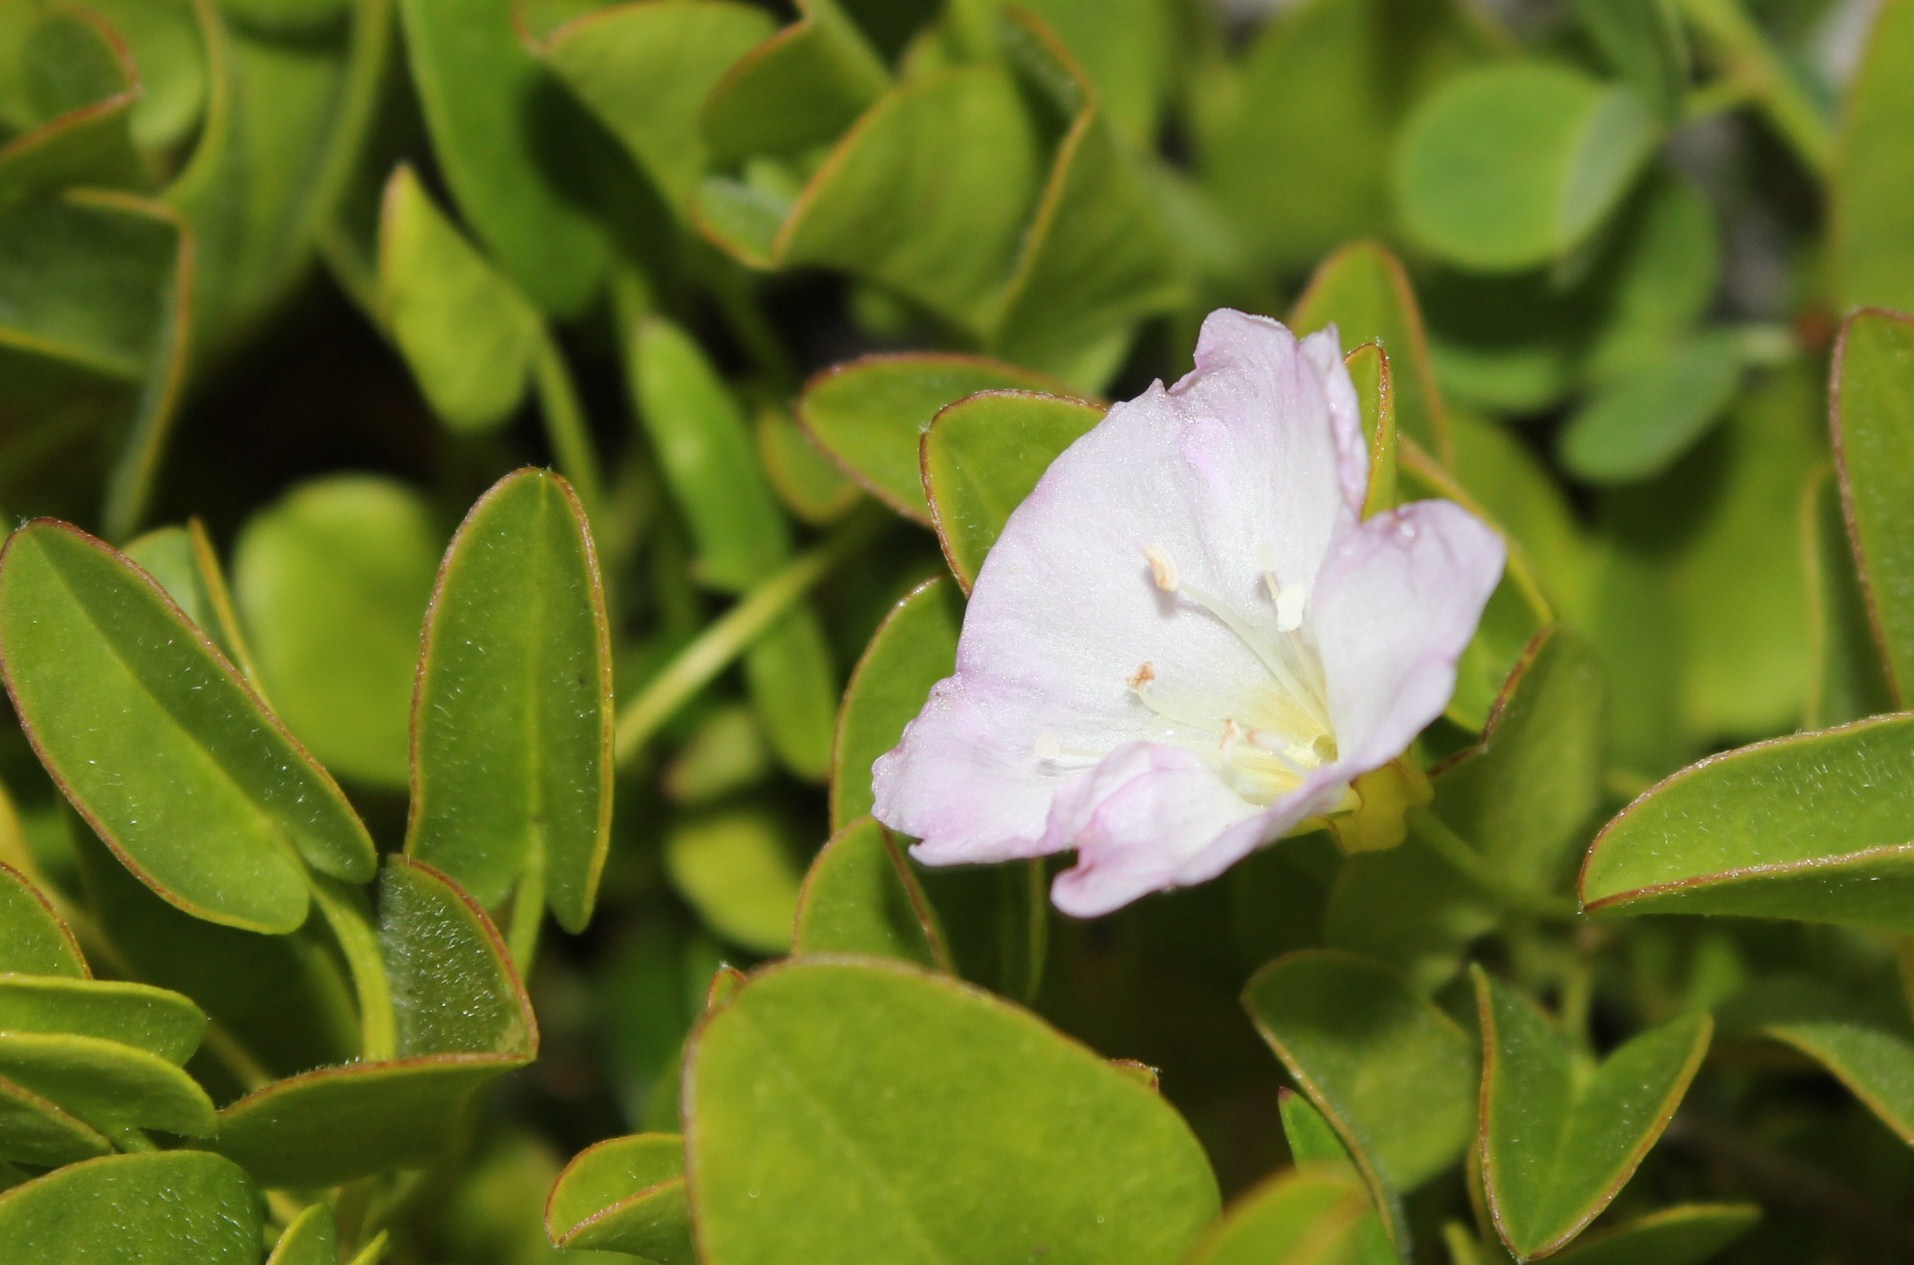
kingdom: Plantae
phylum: Tracheophyta
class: Magnoliopsida
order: Solanales
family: Convolvulaceae
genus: Falkia
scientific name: Falkia repens
